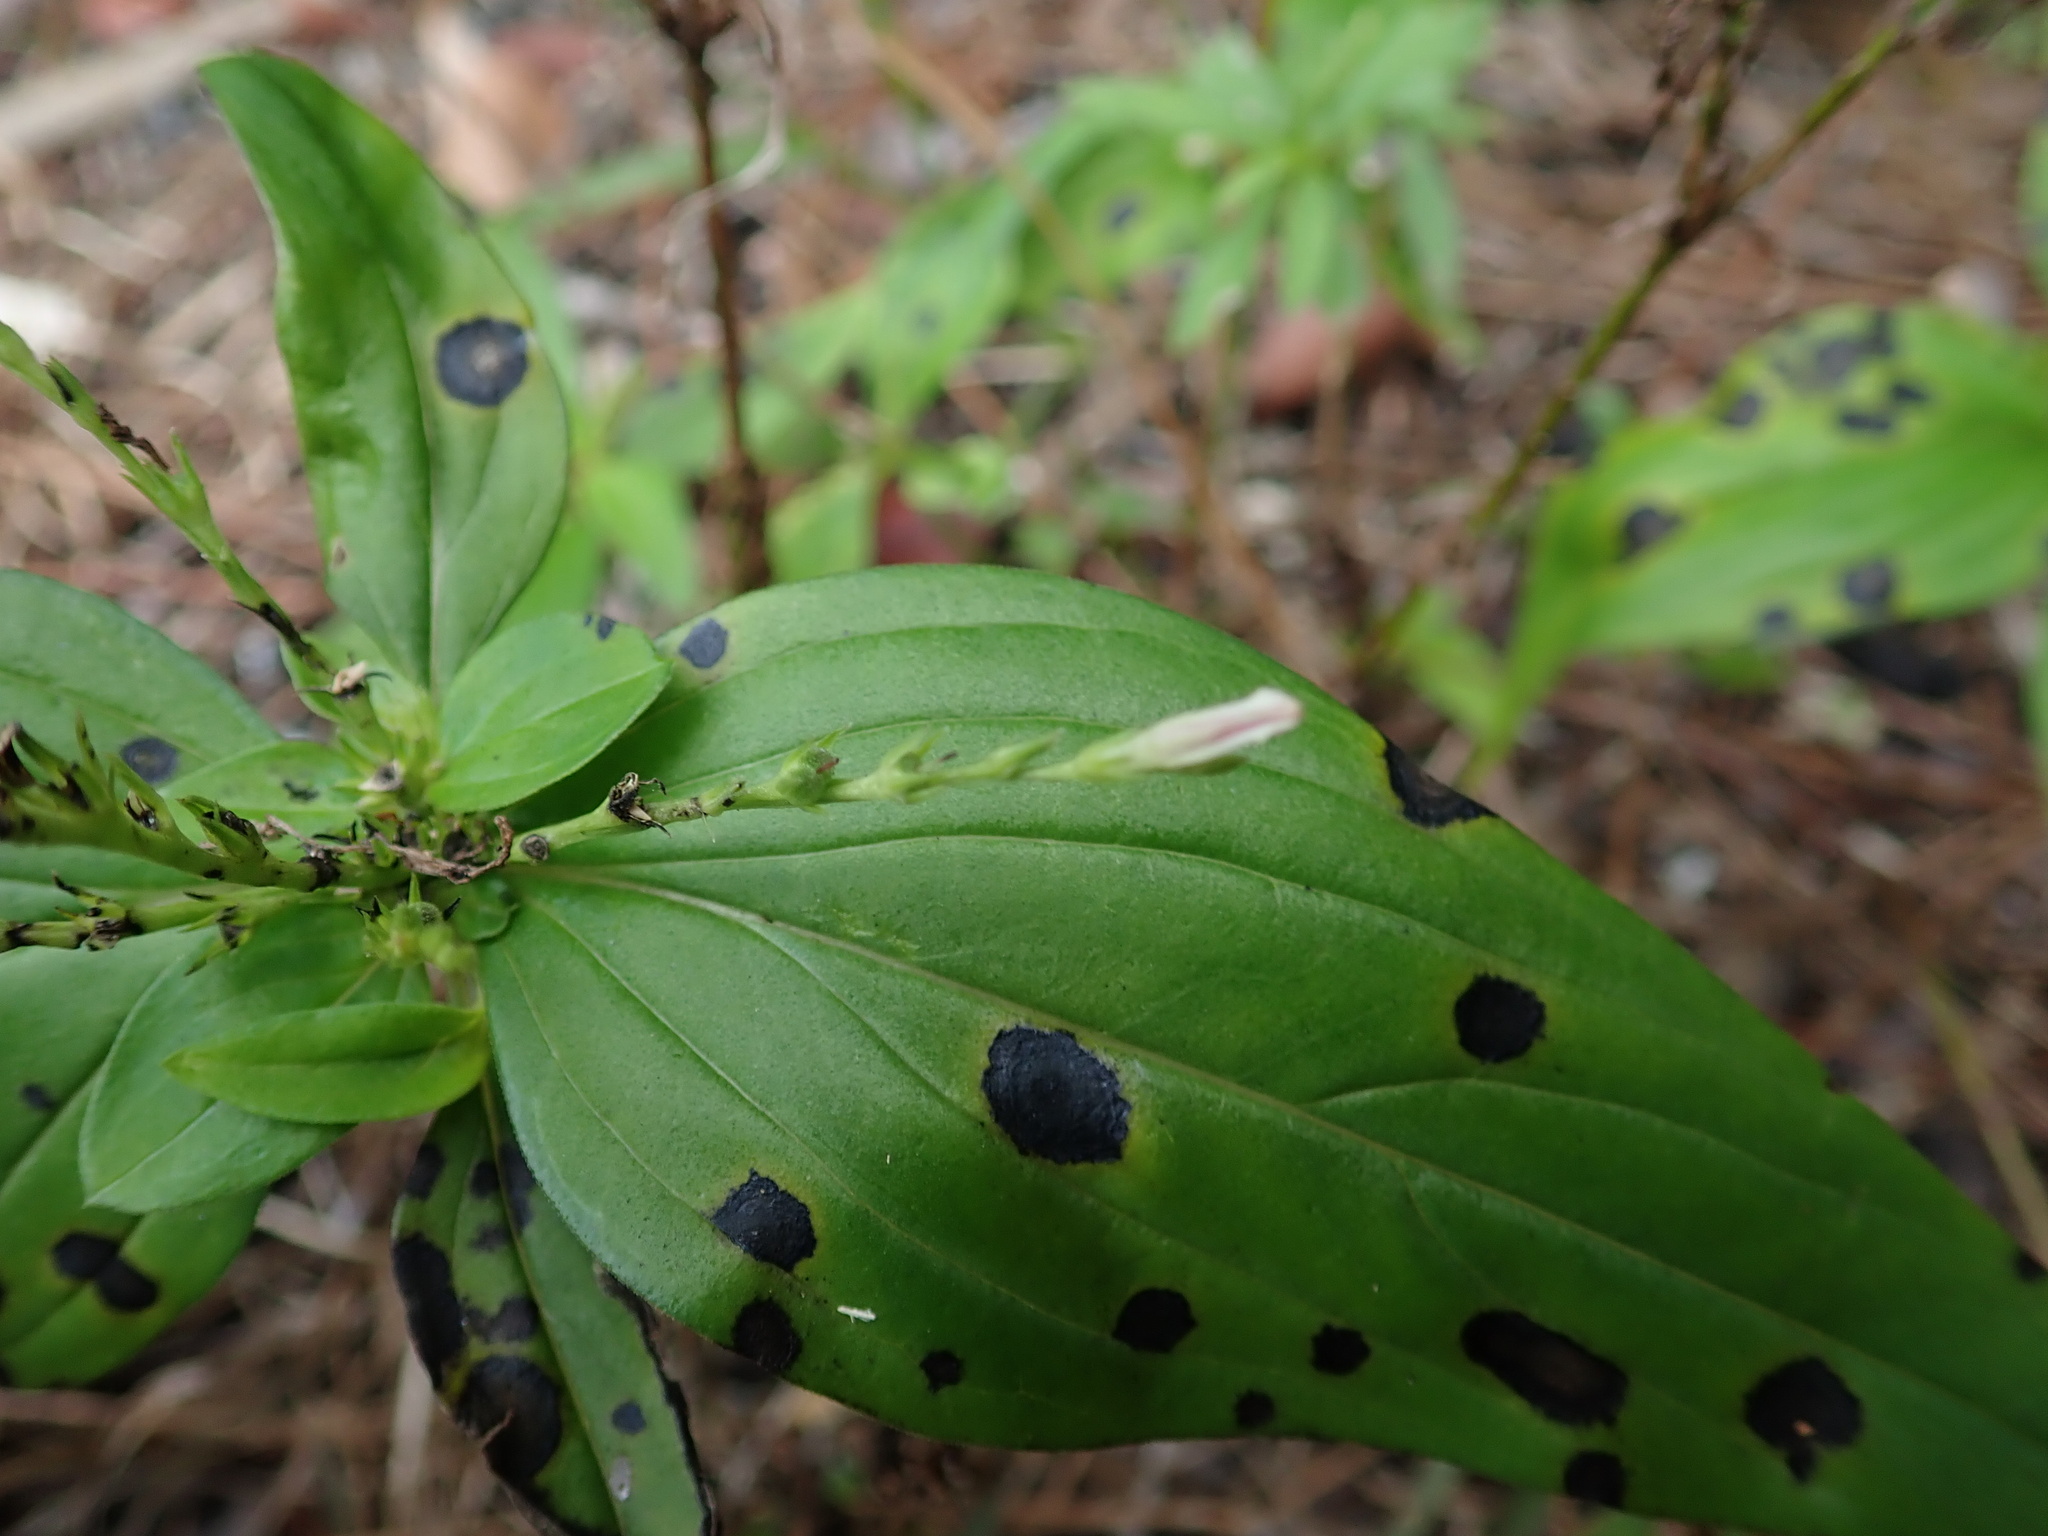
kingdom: Plantae
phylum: Tracheophyta
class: Magnoliopsida
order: Gentianales
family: Loganiaceae
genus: Spigelia
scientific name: Spigelia anthelmia
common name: West indian-pink
